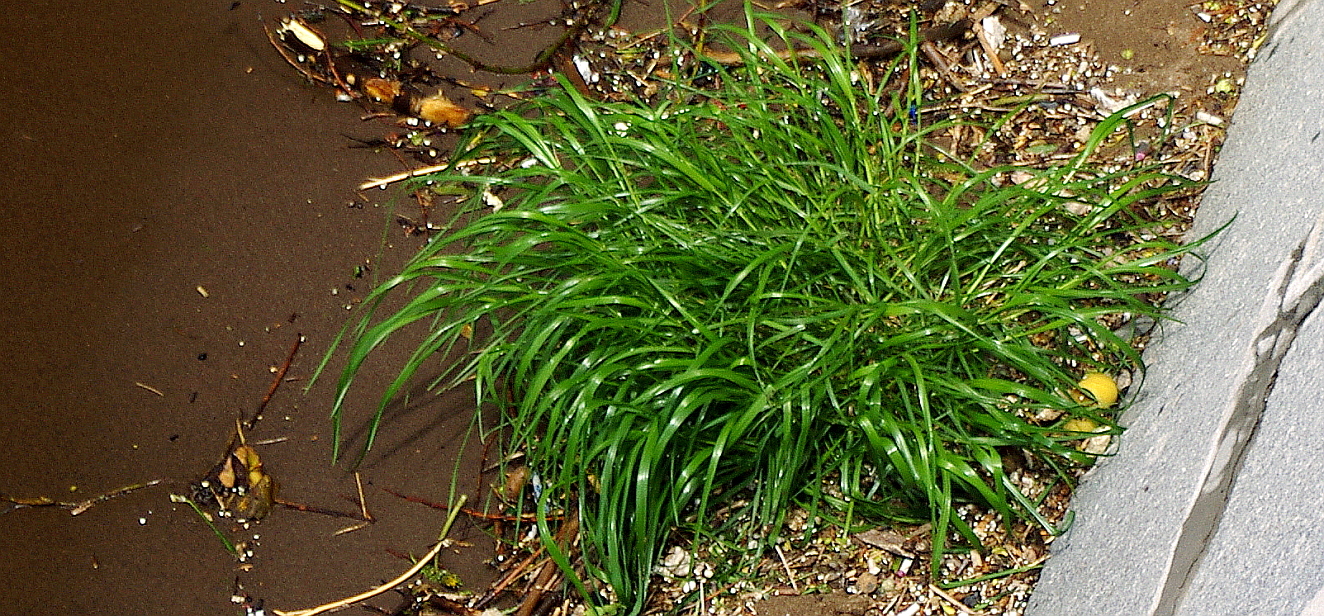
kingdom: Plantae
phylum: Tracheophyta
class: Liliopsida
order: Poales
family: Poaceae
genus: Lolium
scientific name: Lolium arundinaceum
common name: Reed fescue
